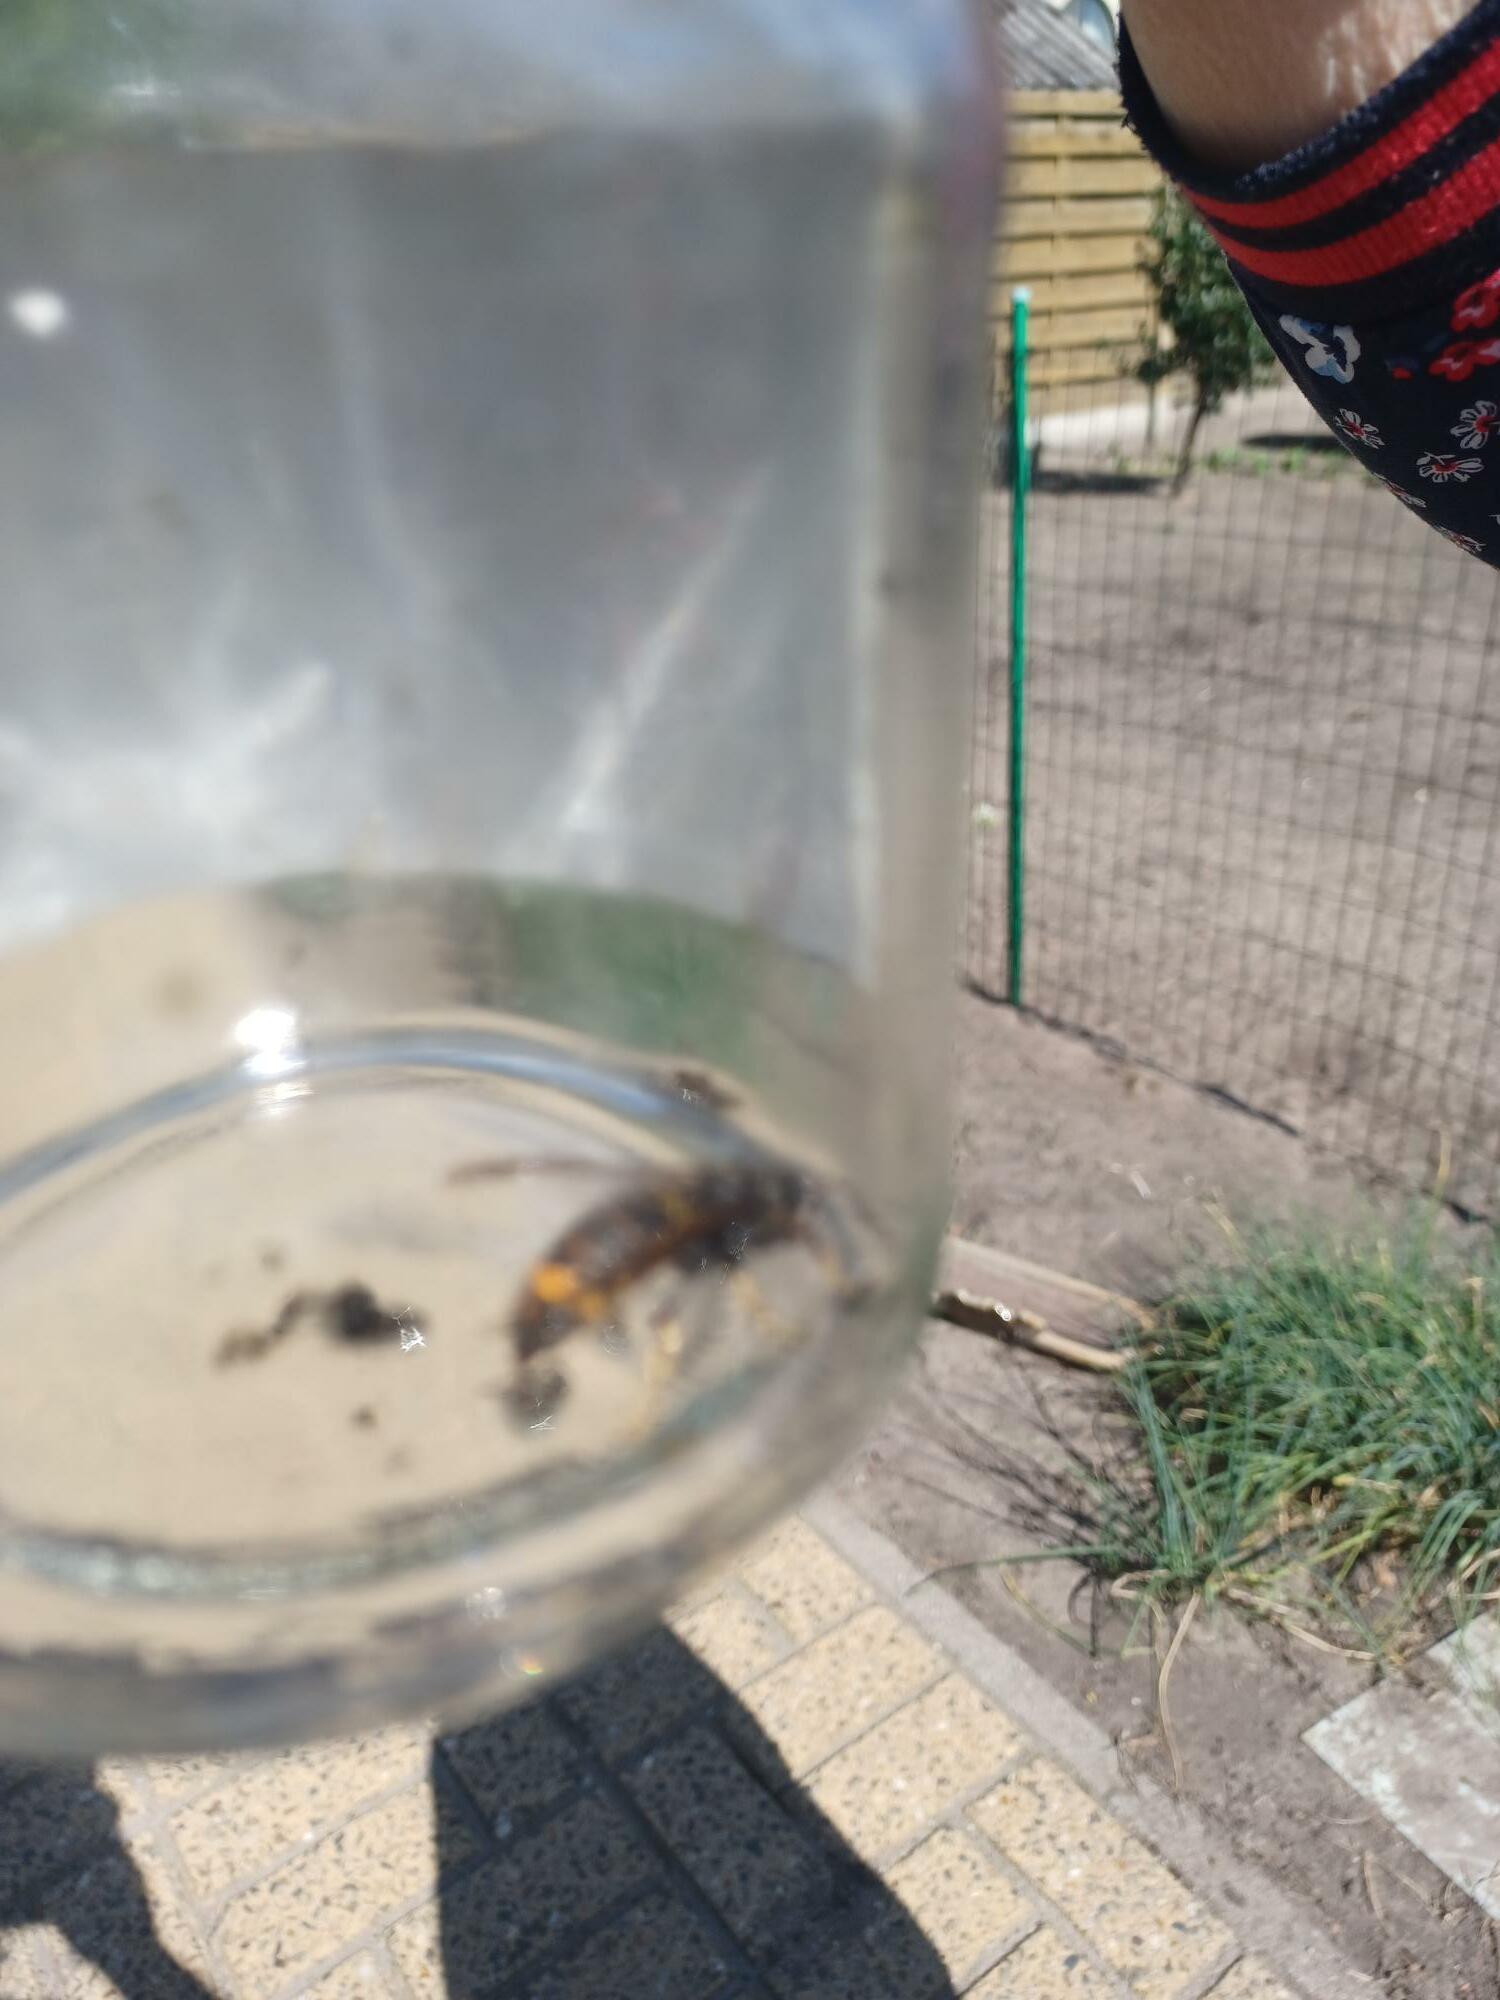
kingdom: Animalia
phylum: Arthropoda
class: Insecta
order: Hymenoptera
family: Vespidae
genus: Vespa
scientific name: Vespa velutina
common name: Asian hornet
